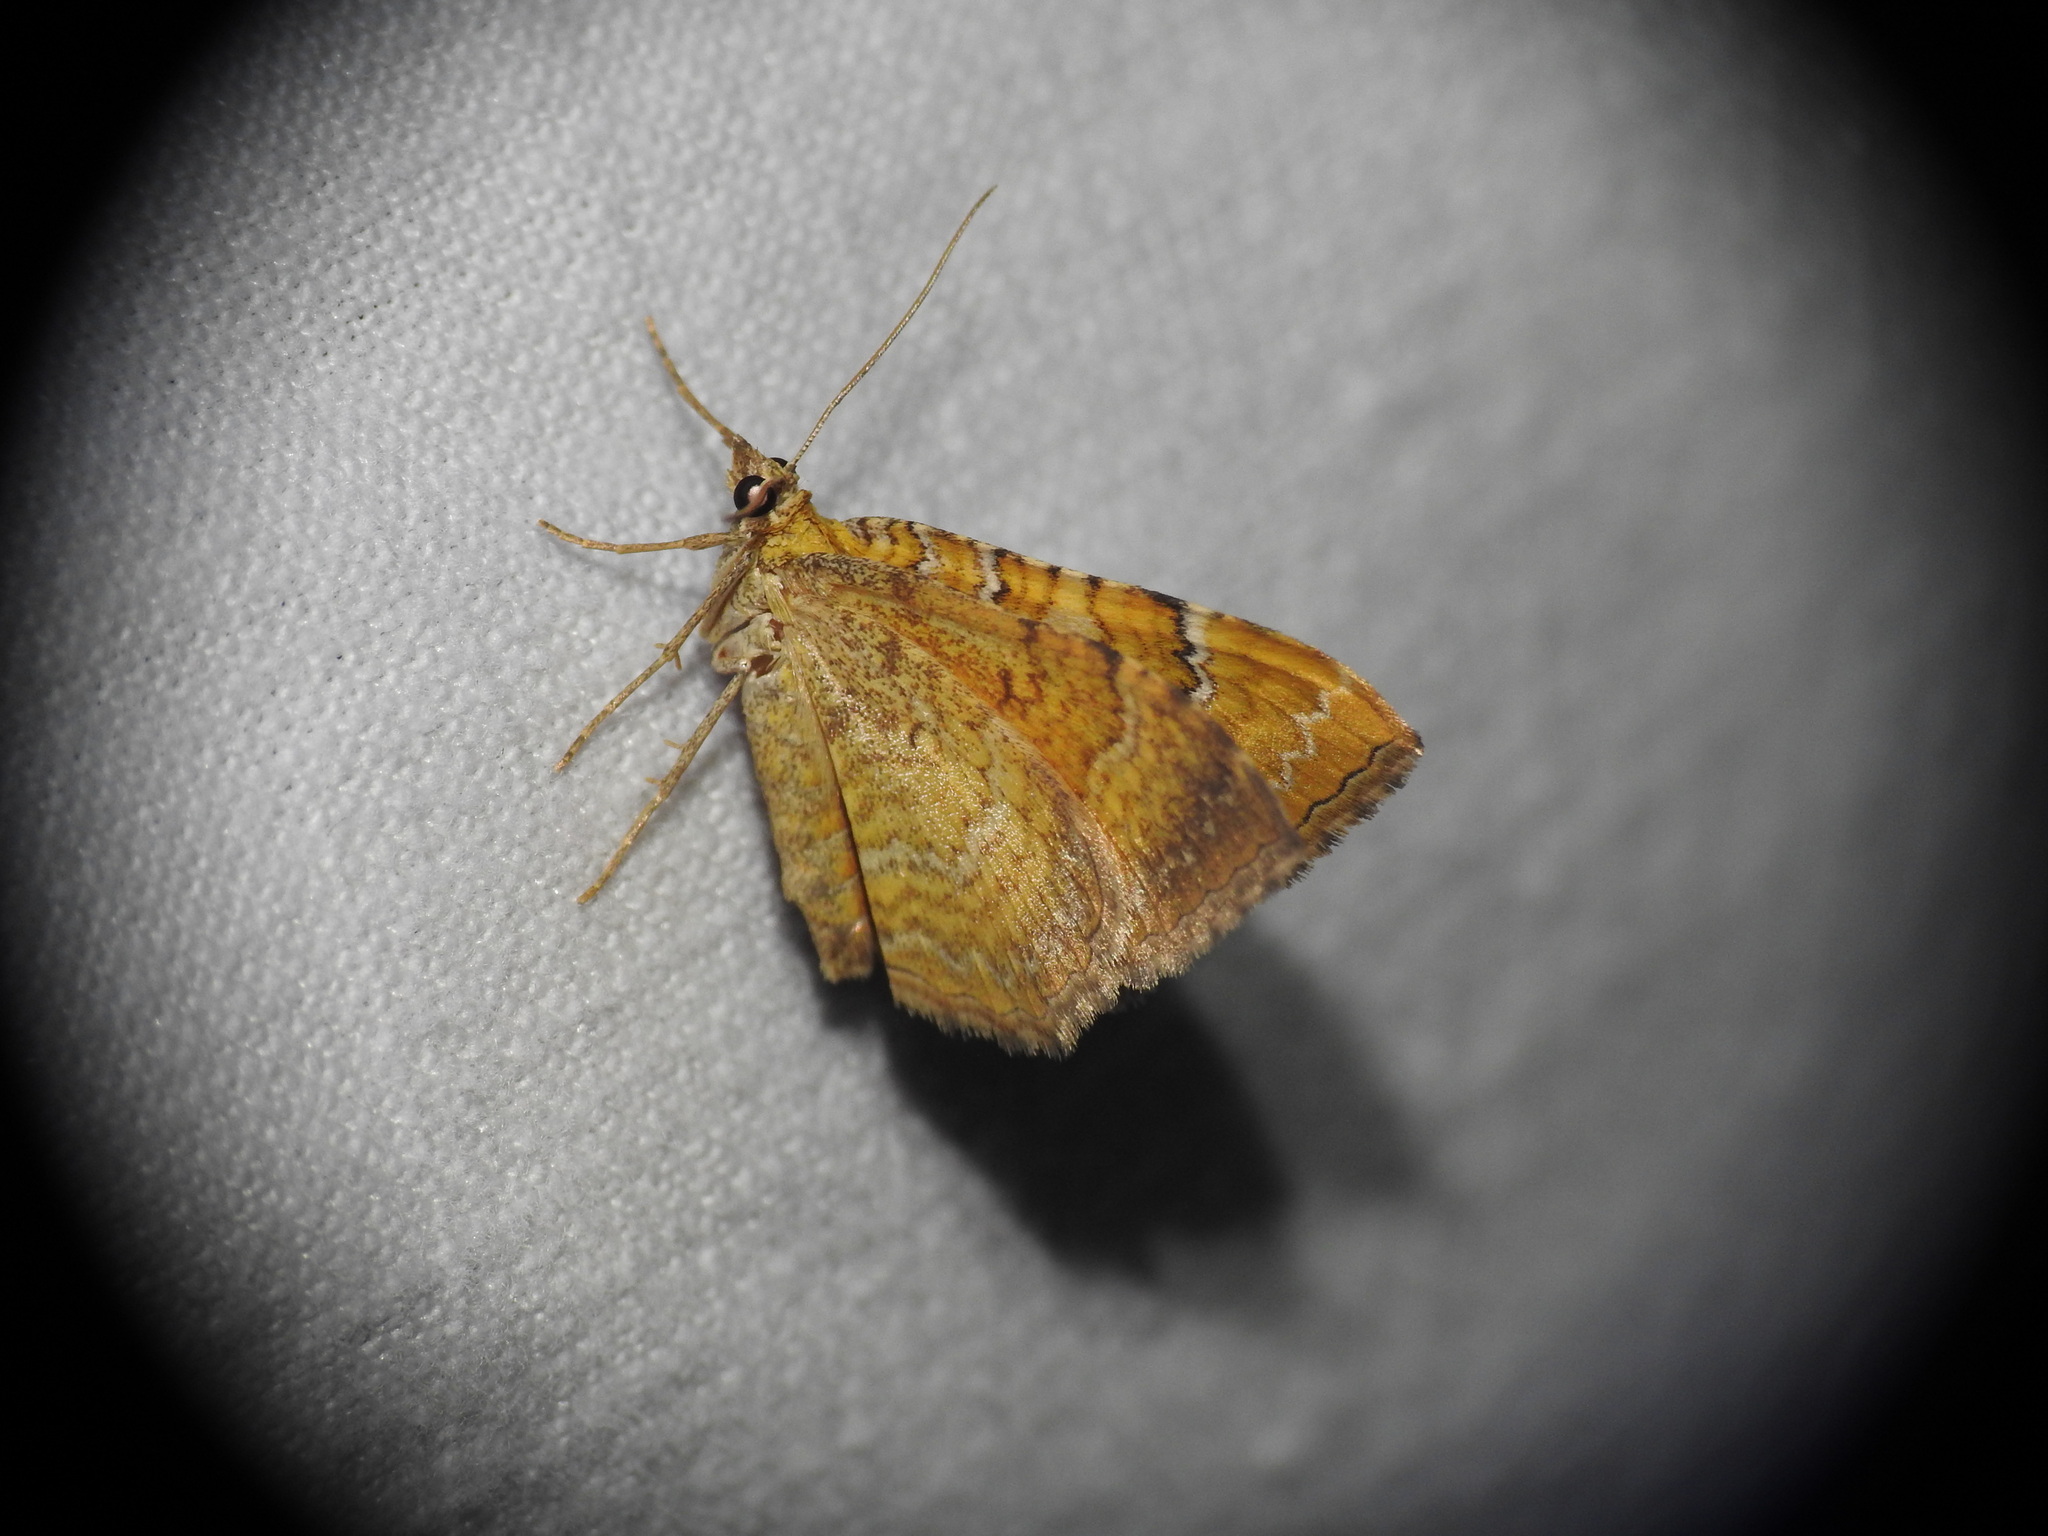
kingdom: Animalia
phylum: Arthropoda
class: Insecta
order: Lepidoptera
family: Geometridae
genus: Camptogramma
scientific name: Camptogramma bilineata
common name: Yellow shell
